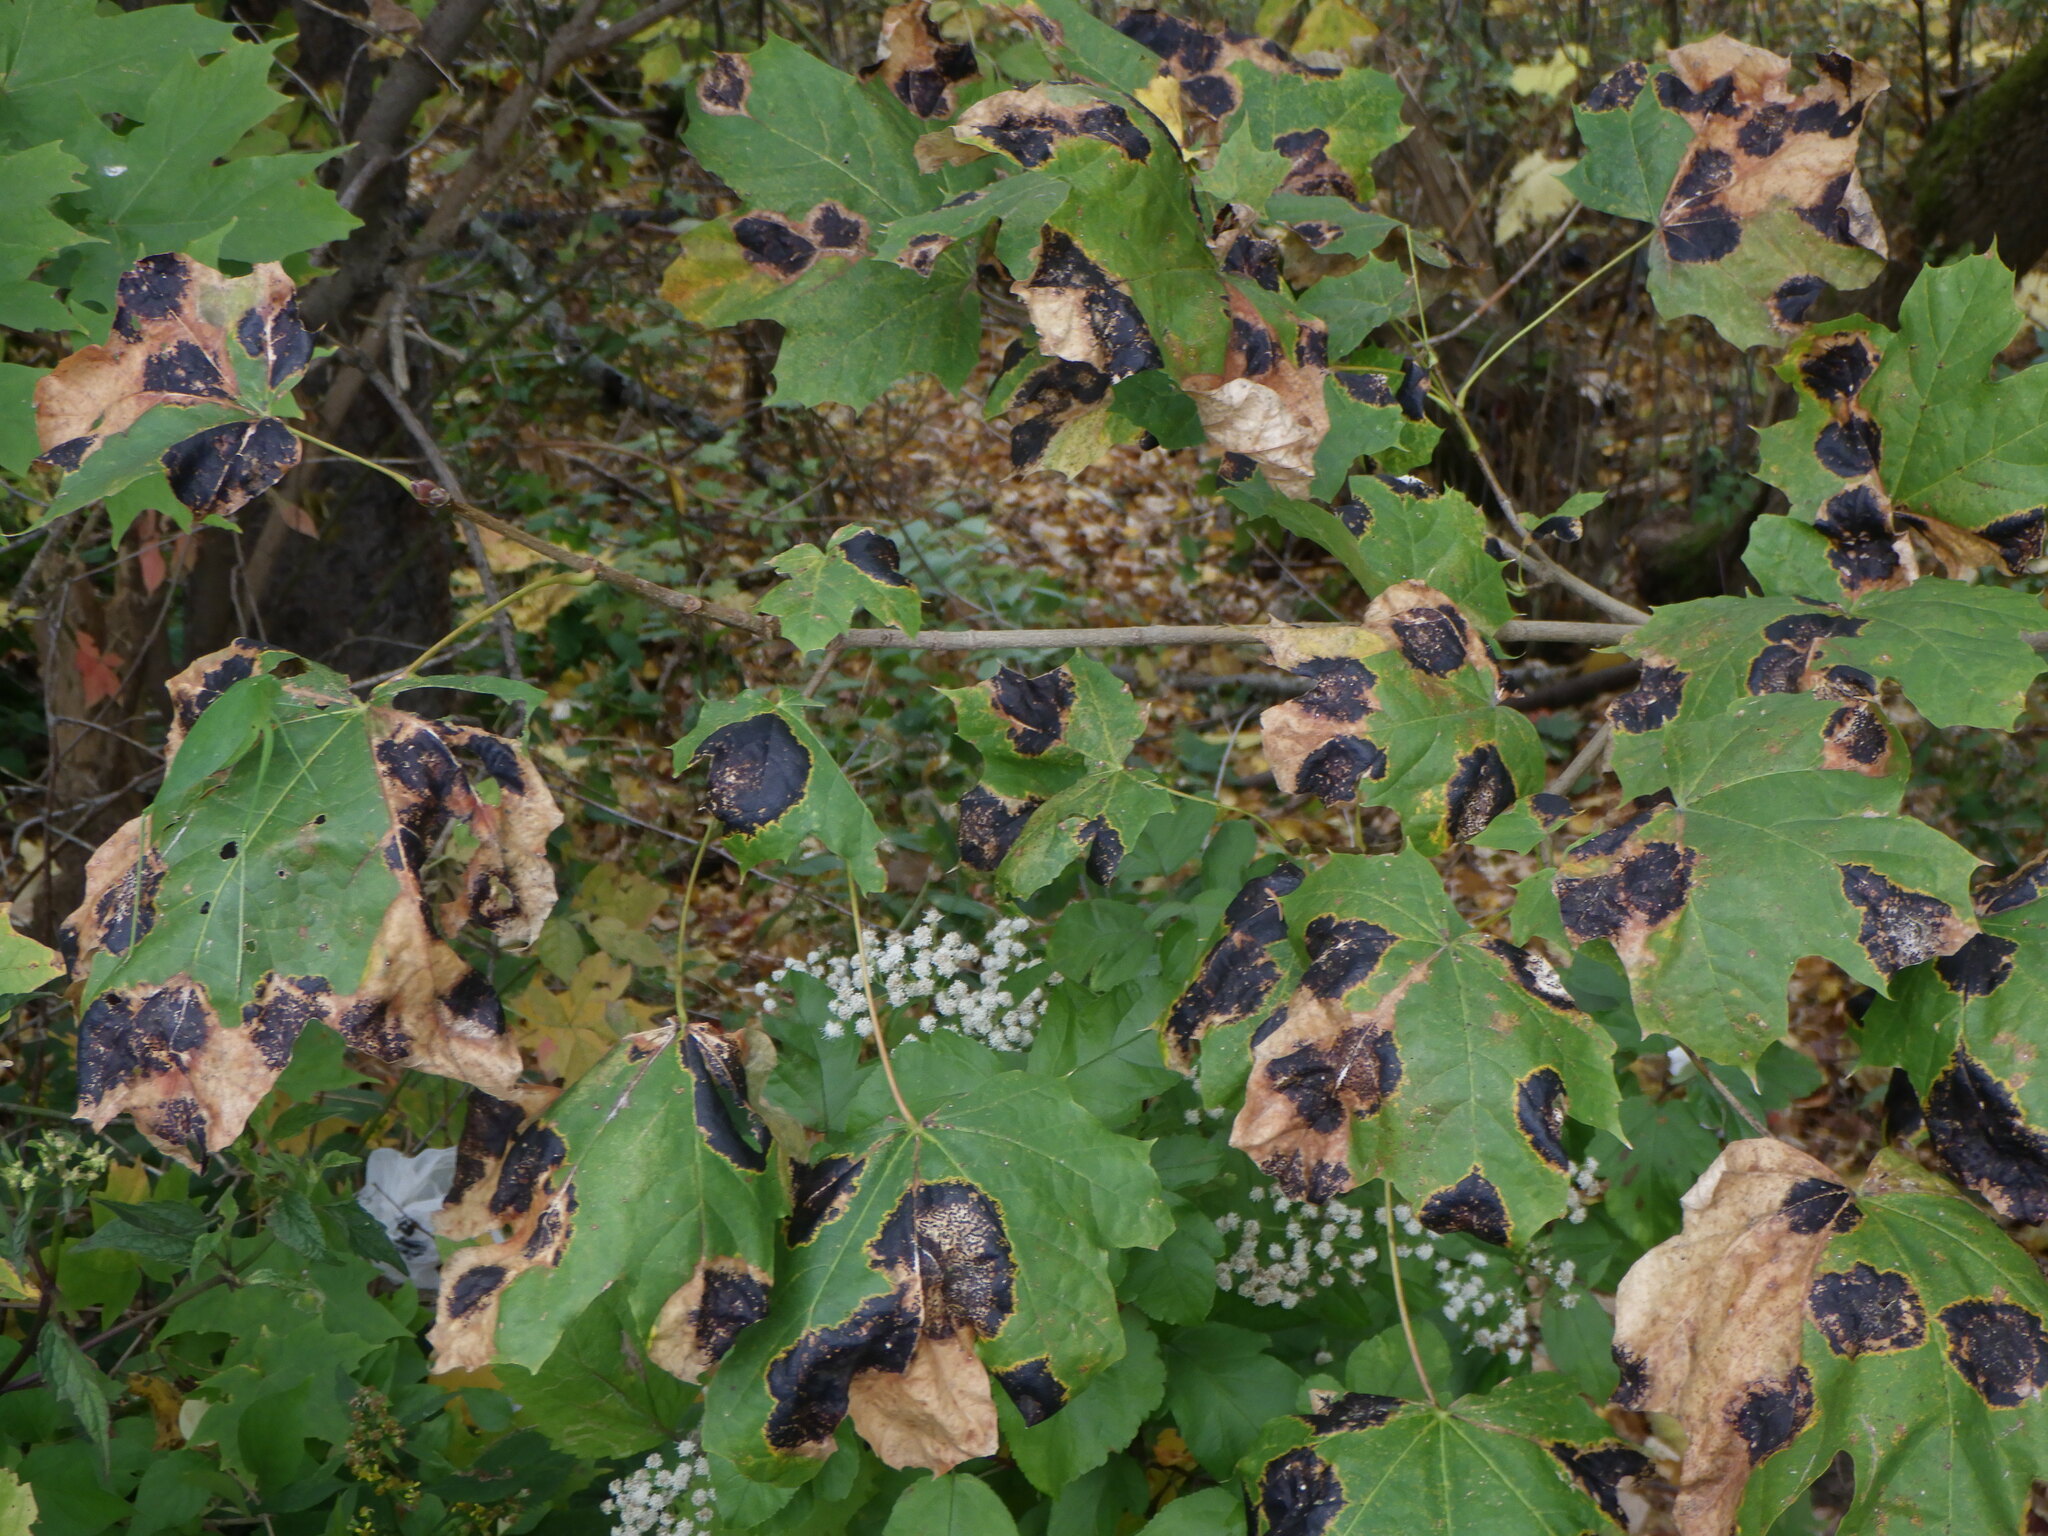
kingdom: Plantae
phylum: Tracheophyta
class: Magnoliopsida
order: Sapindales
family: Sapindaceae
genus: Acer
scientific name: Acer platanoides
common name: Norway maple
